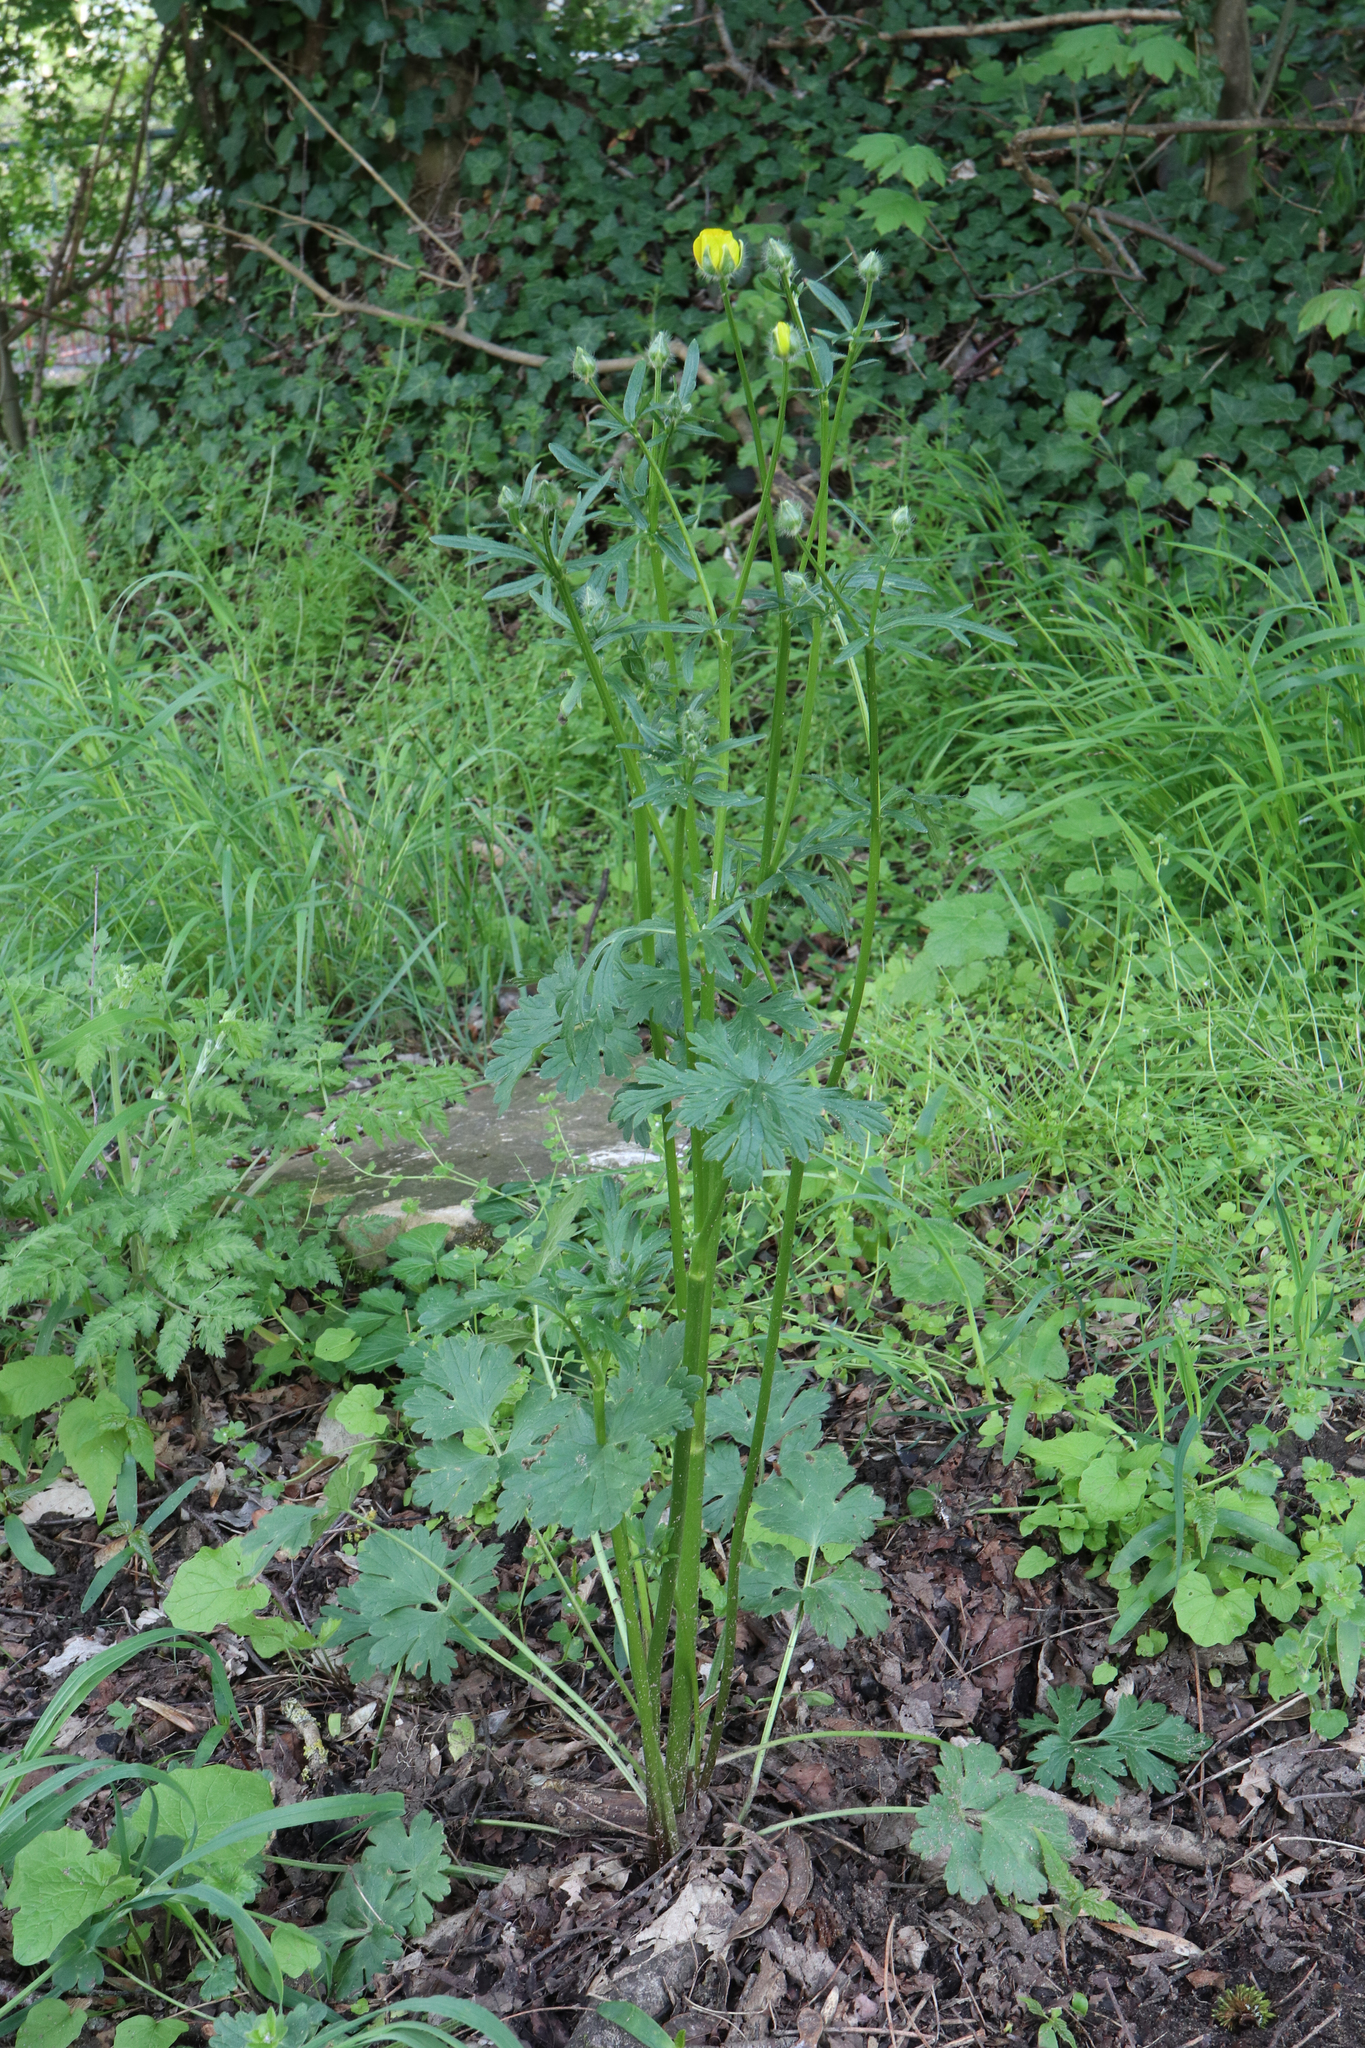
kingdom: Plantae
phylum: Tracheophyta
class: Magnoliopsida
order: Ranunculales
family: Ranunculaceae
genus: Ranunculus
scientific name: Ranunculus repens
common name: Creeping buttercup
